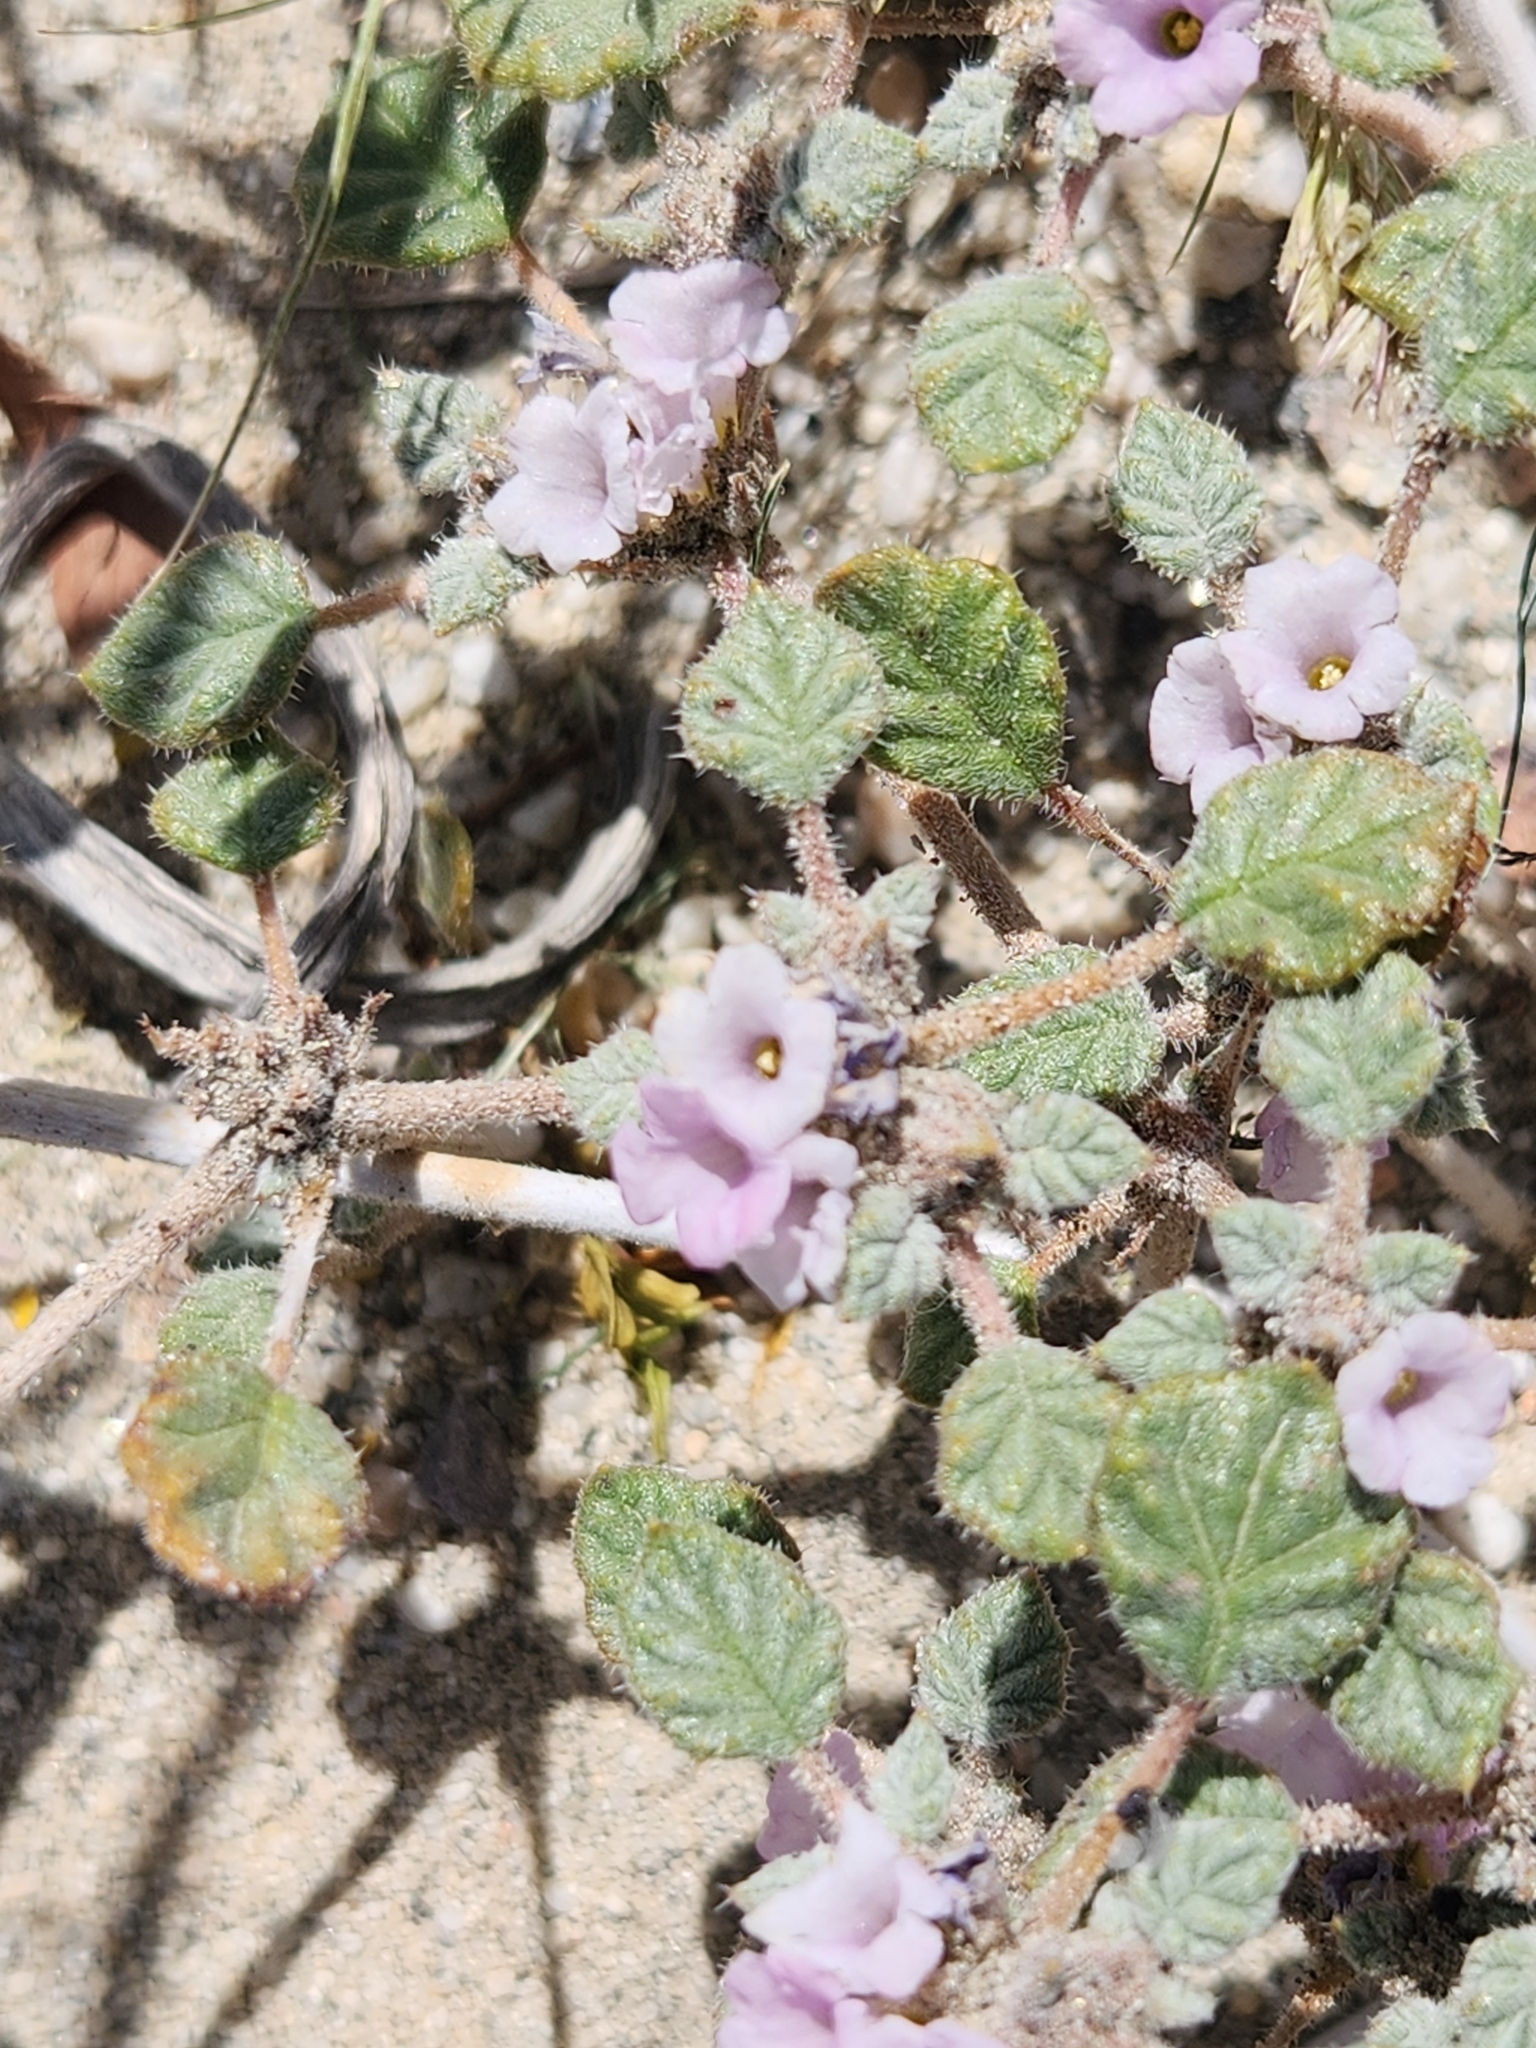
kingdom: Plantae
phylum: Tracheophyta
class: Magnoliopsida
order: Boraginales
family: Ehretiaceae
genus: Tiquilia
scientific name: Tiquilia palmeri
